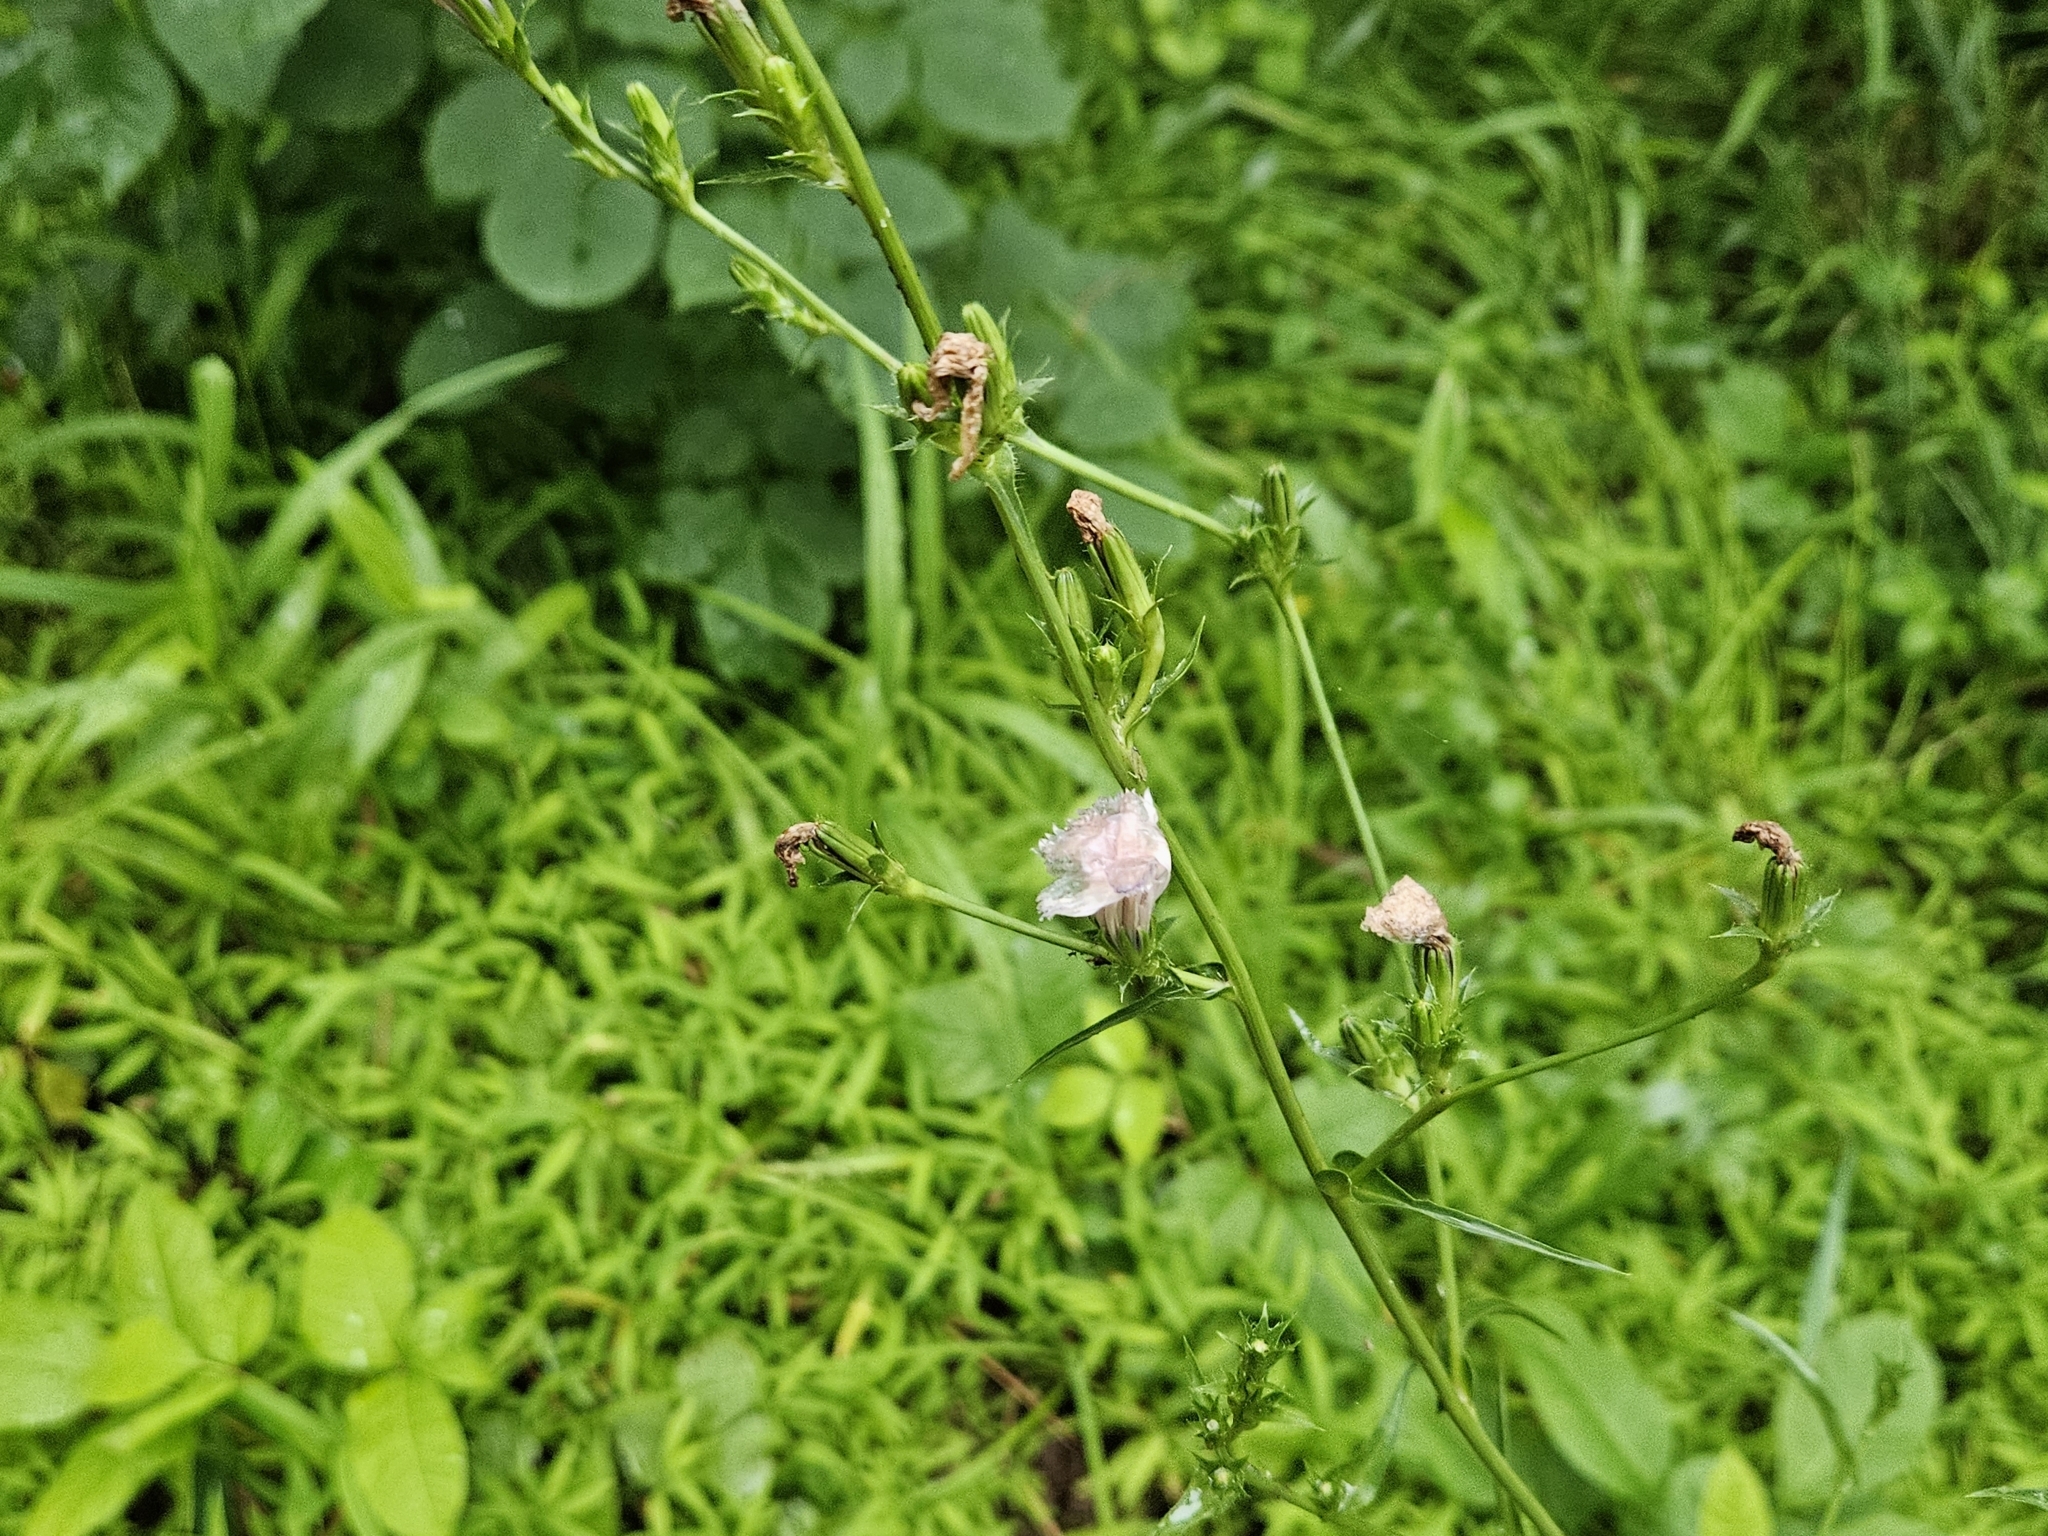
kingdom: Plantae
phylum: Tracheophyta
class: Magnoliopsida
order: Asterales
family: Asteraceae
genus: Cichorium
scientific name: Cichorium intybus
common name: Chicory
